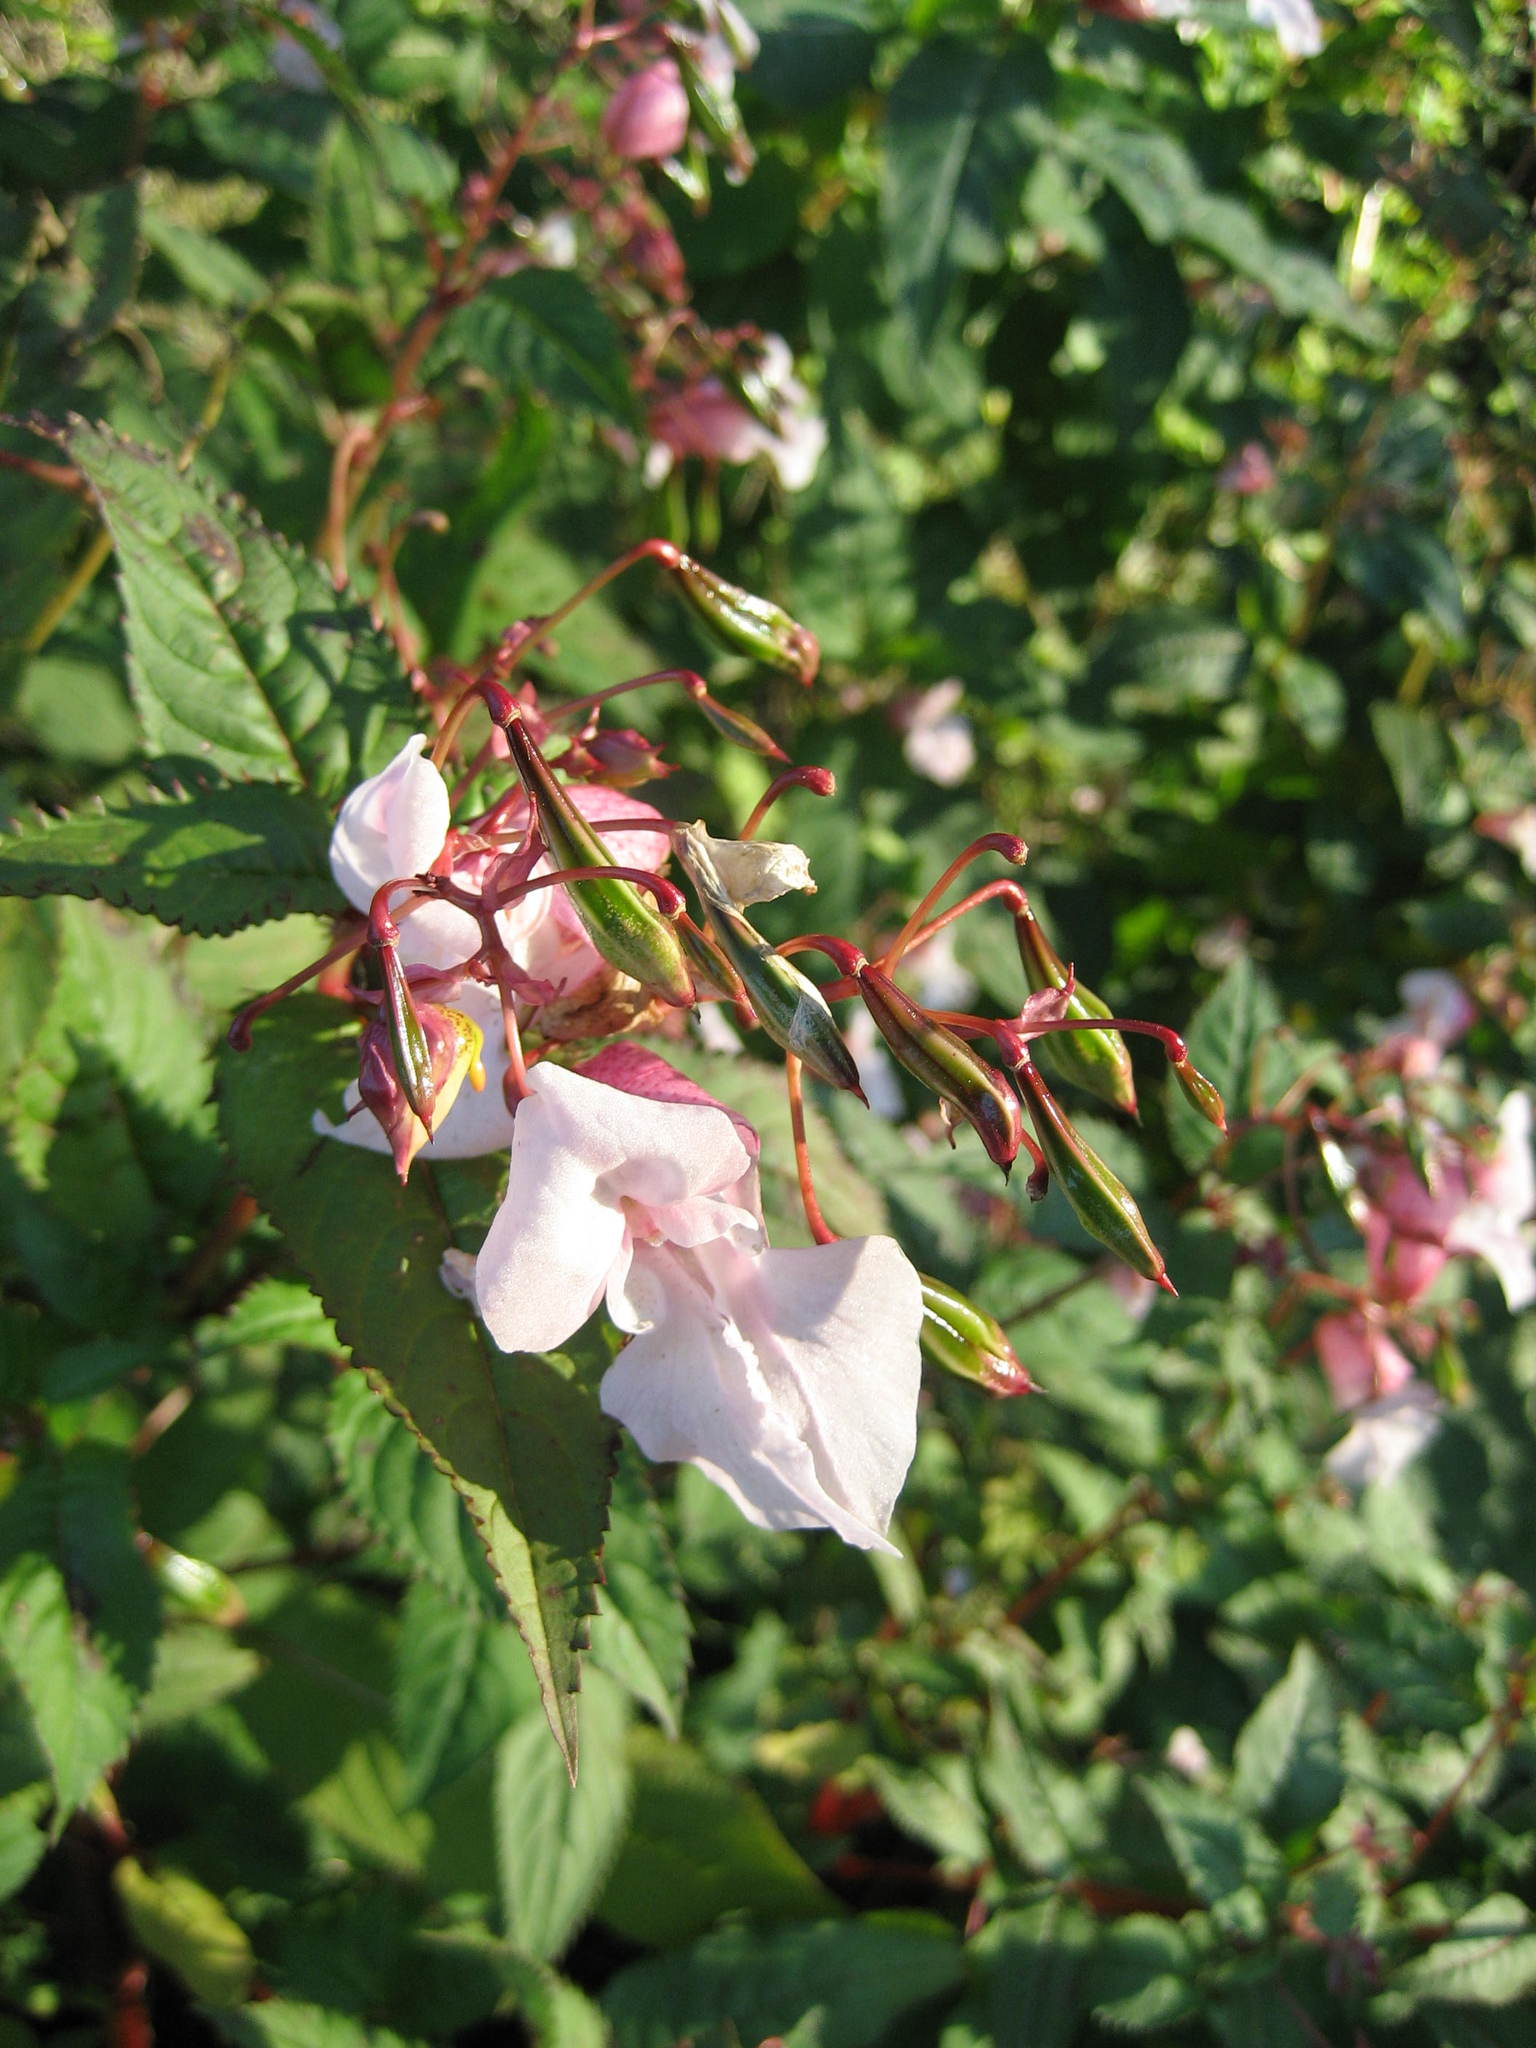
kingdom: Plantae
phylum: Tracheophyta
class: Magnoliopsida
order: Ericales
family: Balsaminaceae
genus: Impatiens
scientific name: Impatiens glandulifera
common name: Himalayan balsam
